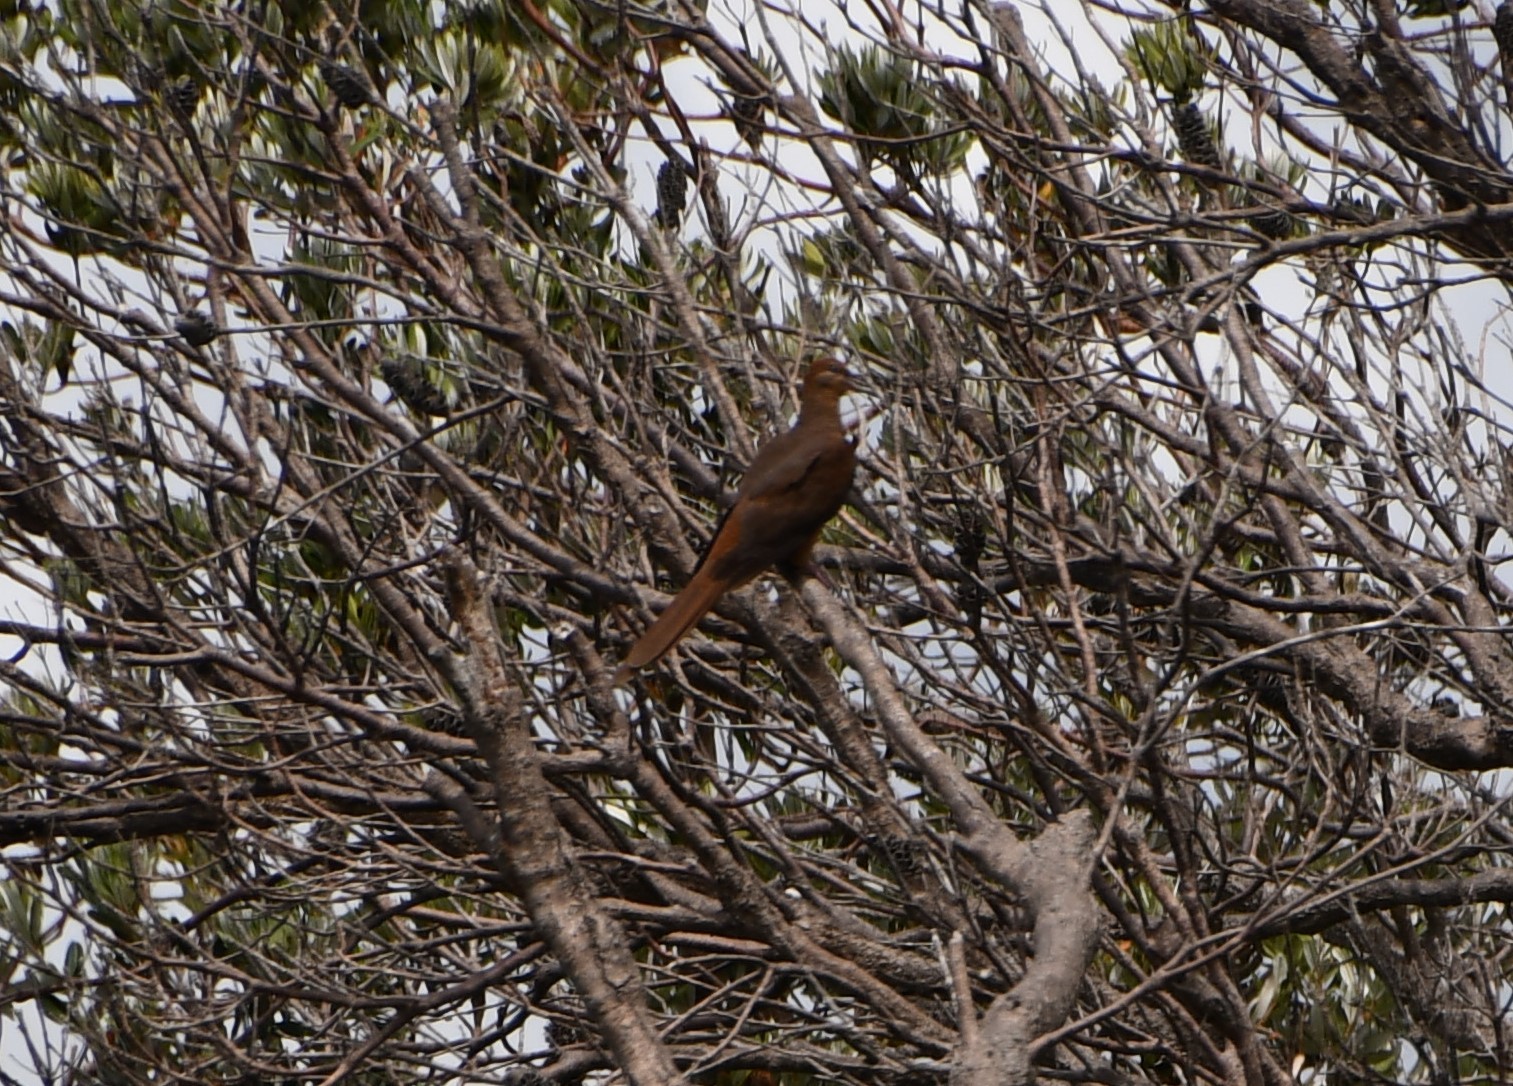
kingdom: Animalia
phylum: Chordata
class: Aves
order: Columbiformes
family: Columbidae
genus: Macropygia
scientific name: Macropygia phasianella
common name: Brown cuckoo-dove
